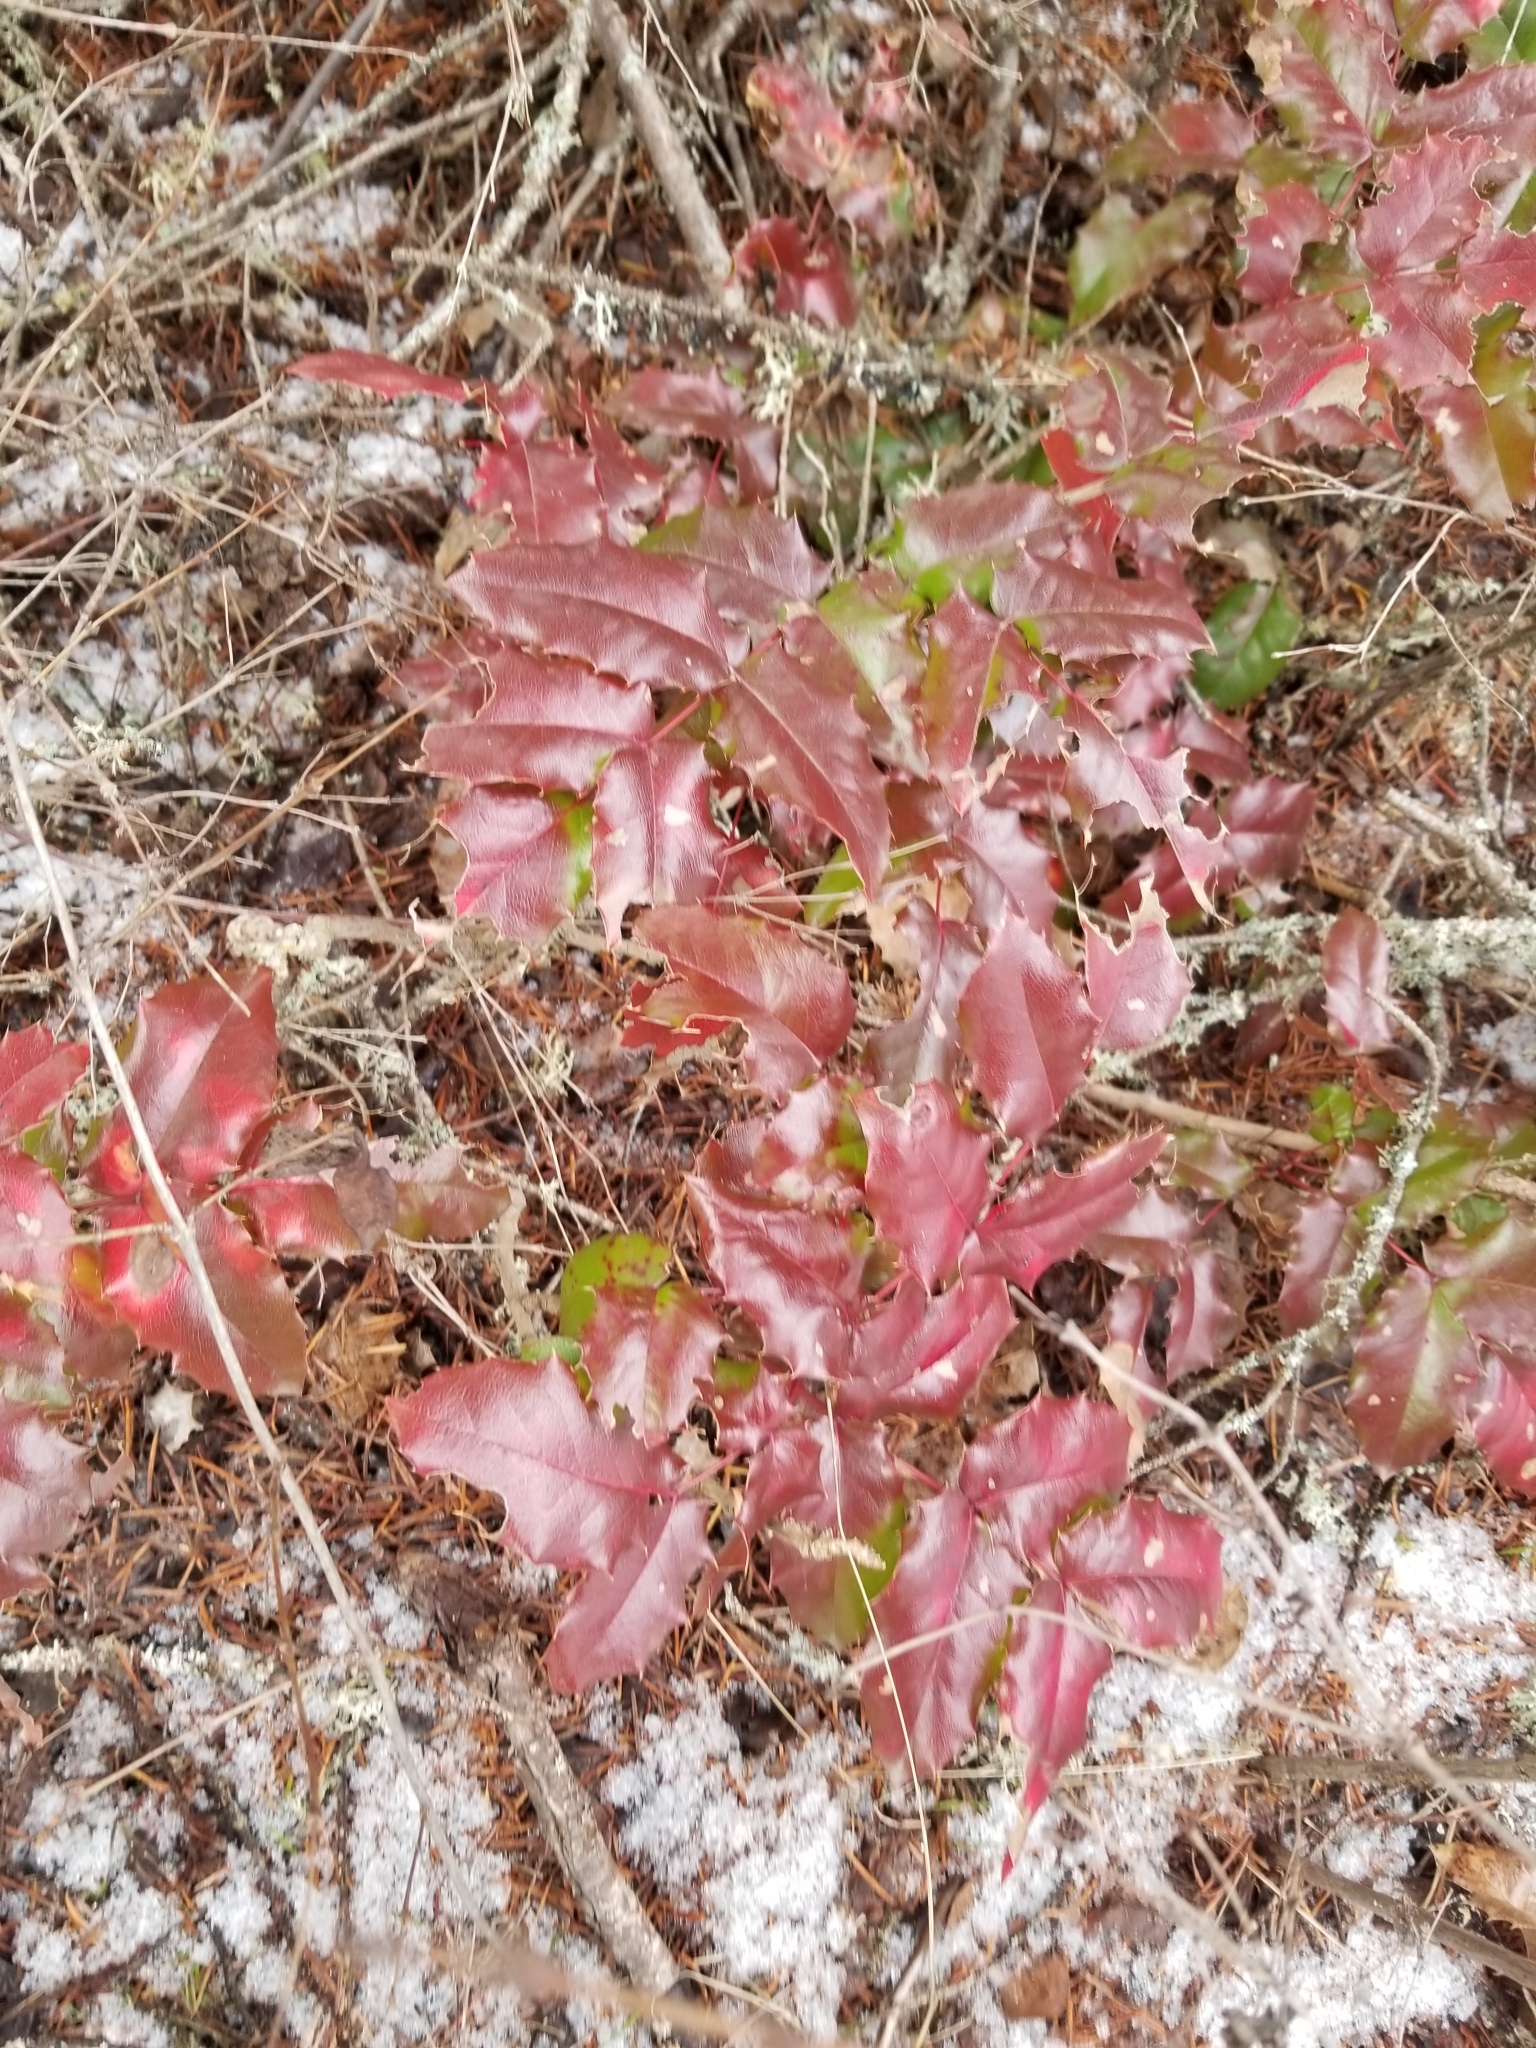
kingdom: Plantae
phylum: Tracheophyta
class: Magnoliopsida
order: Ranunculales
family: Berberidaceae
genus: Mahonia
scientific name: Mahonia aquifolium
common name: Oregon-grape
